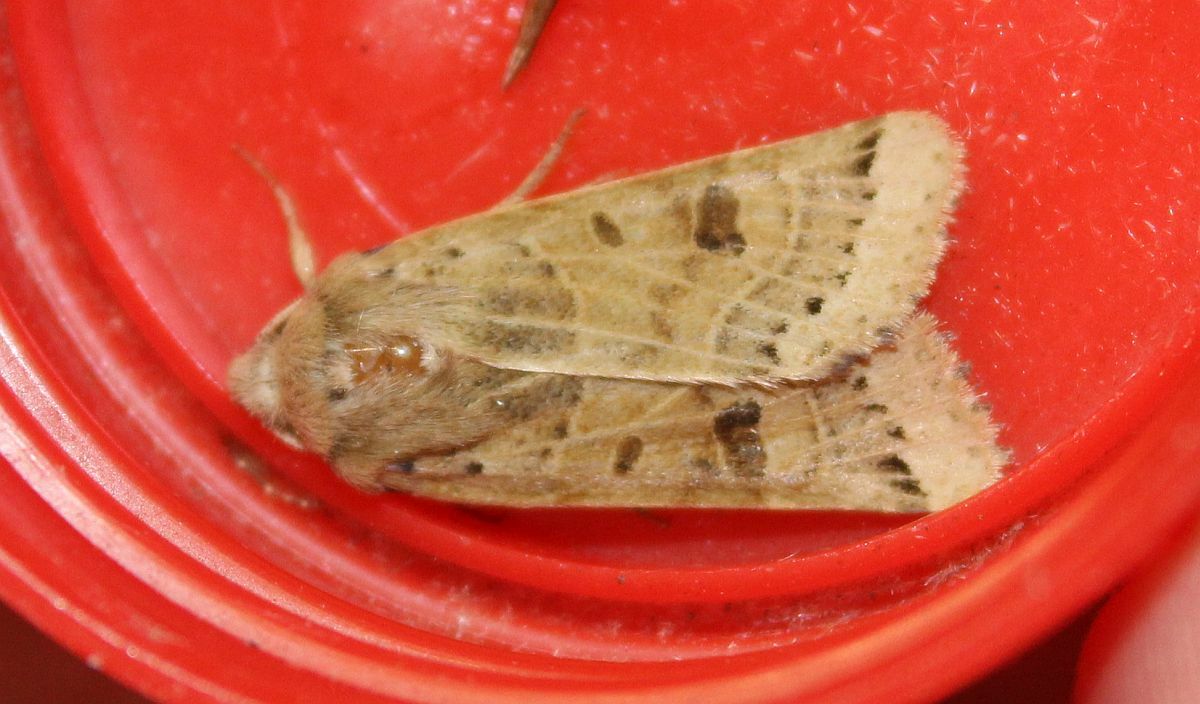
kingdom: Animalia
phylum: Arthropoda
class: Insecta
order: Lepidoptera
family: Noctuidae
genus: Agrochola
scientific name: Agrochola lunosa
